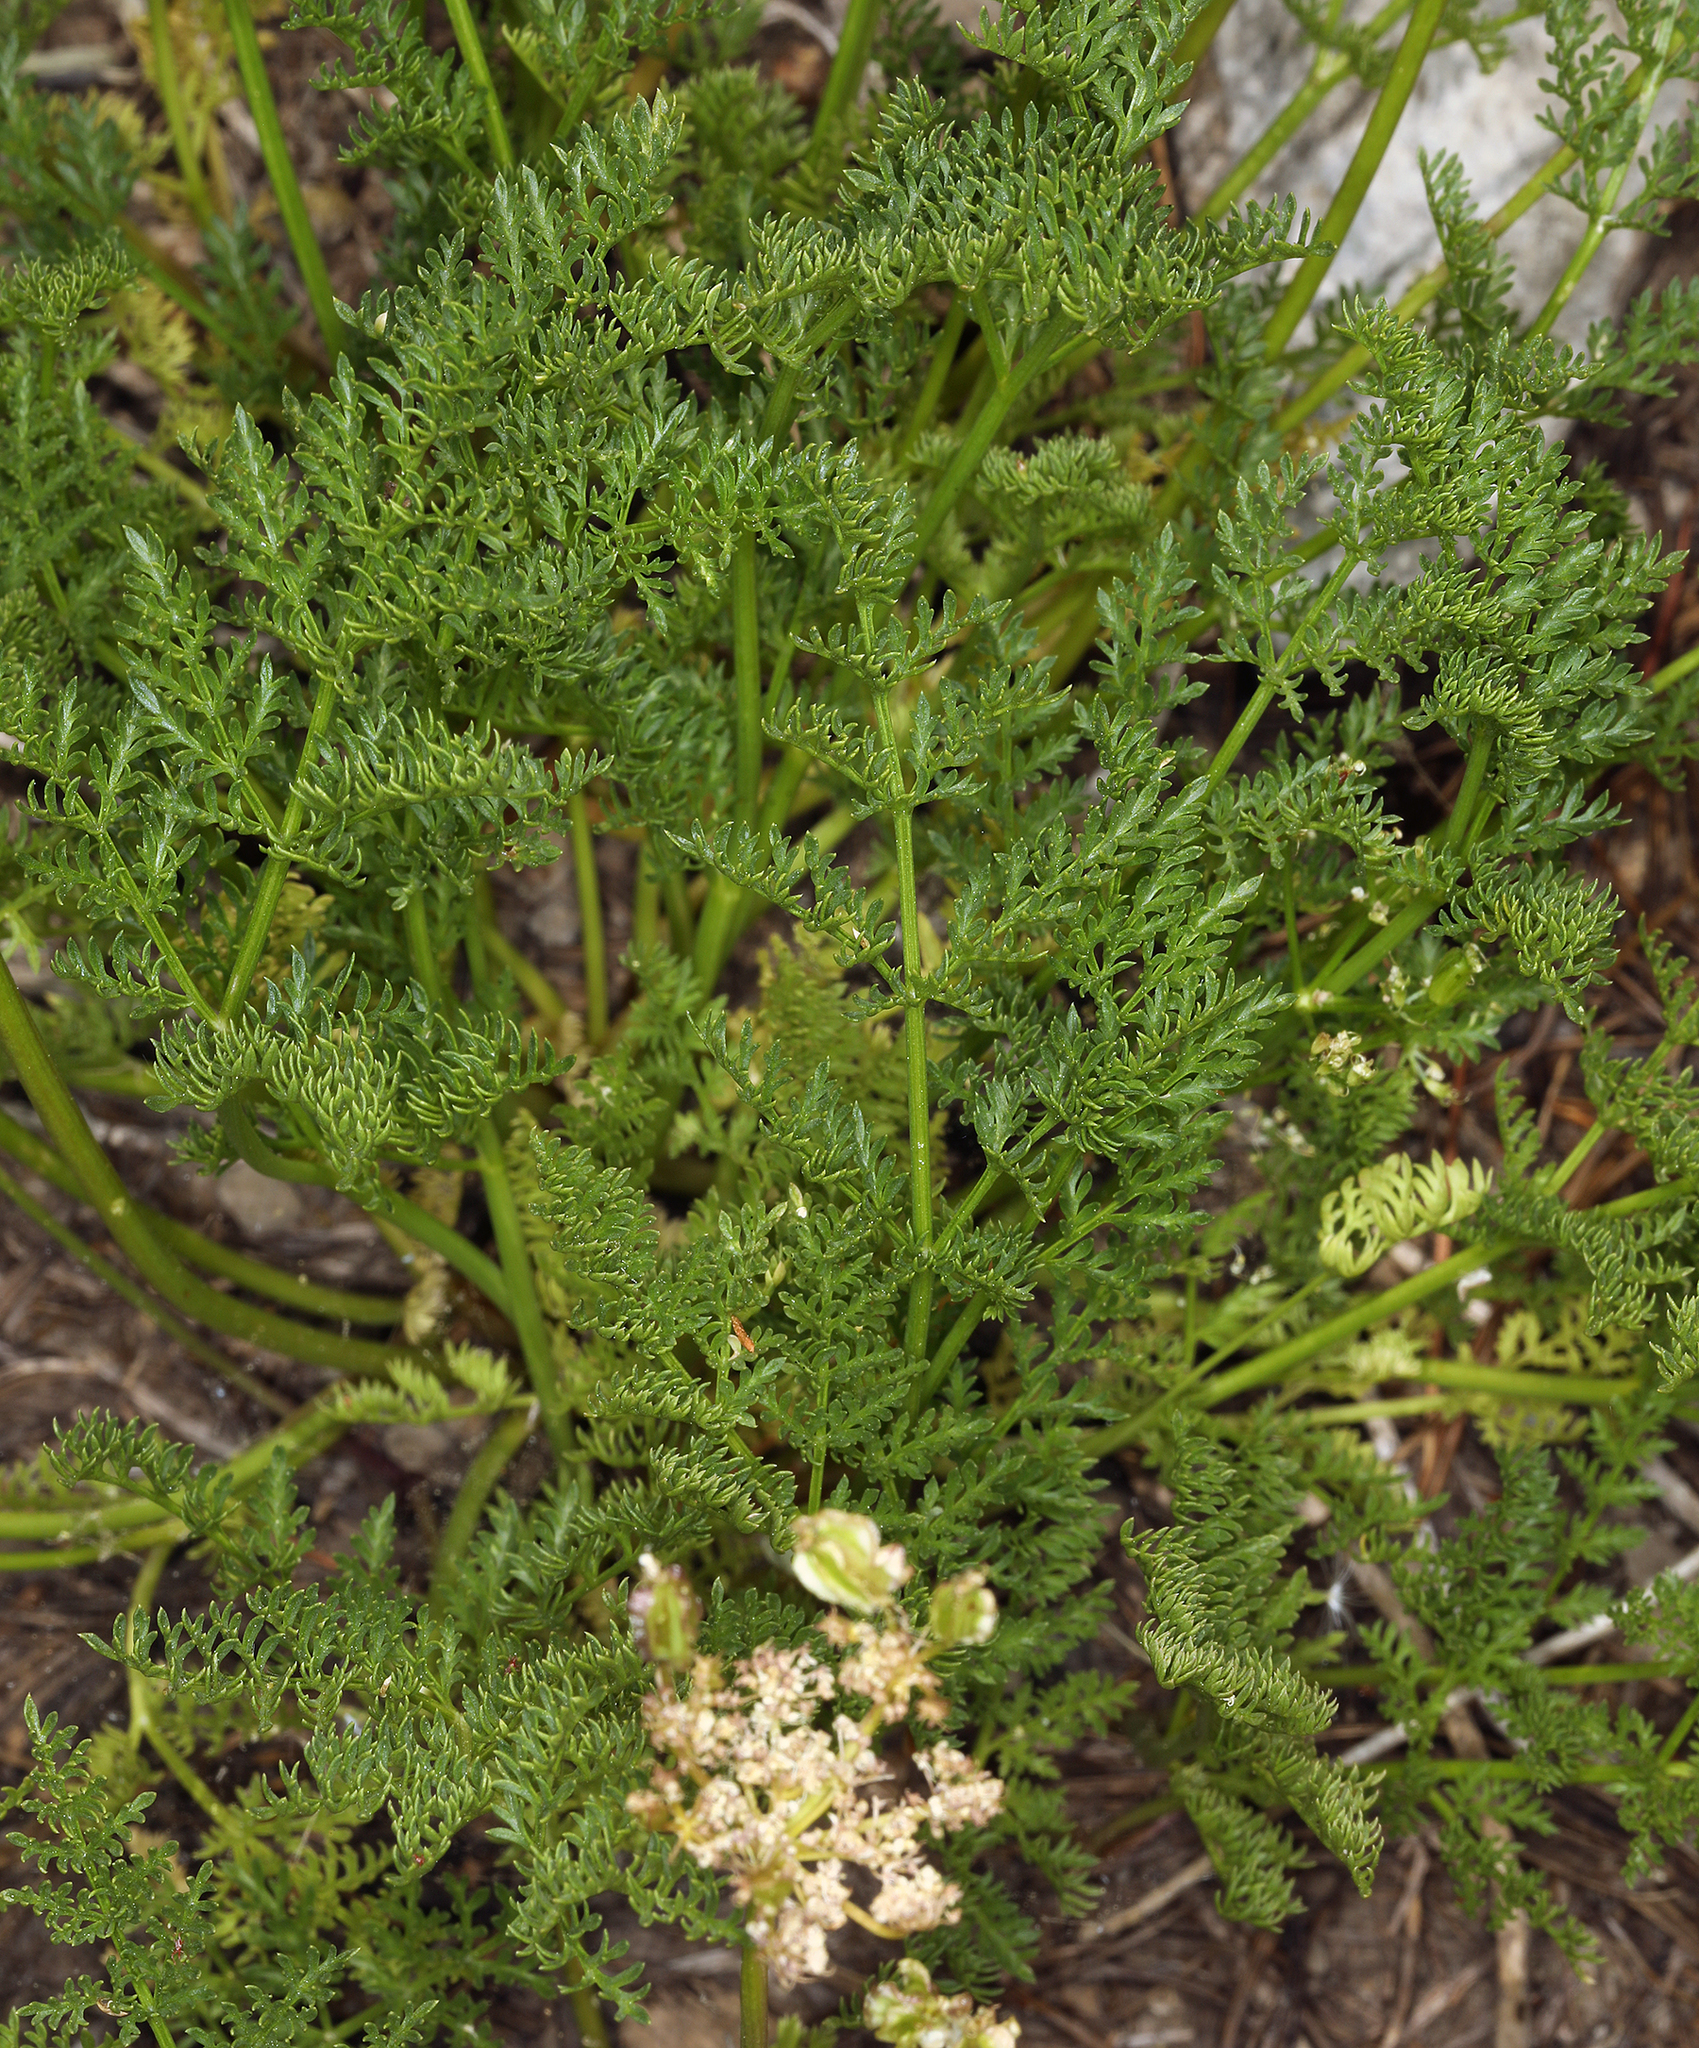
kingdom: Plantae
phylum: Tracheophyta
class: Magnoliopsida
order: Apiales
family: Apiaceae
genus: Pteryxia
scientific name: Pteryxia terebinthina
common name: Turpentine wavewing
